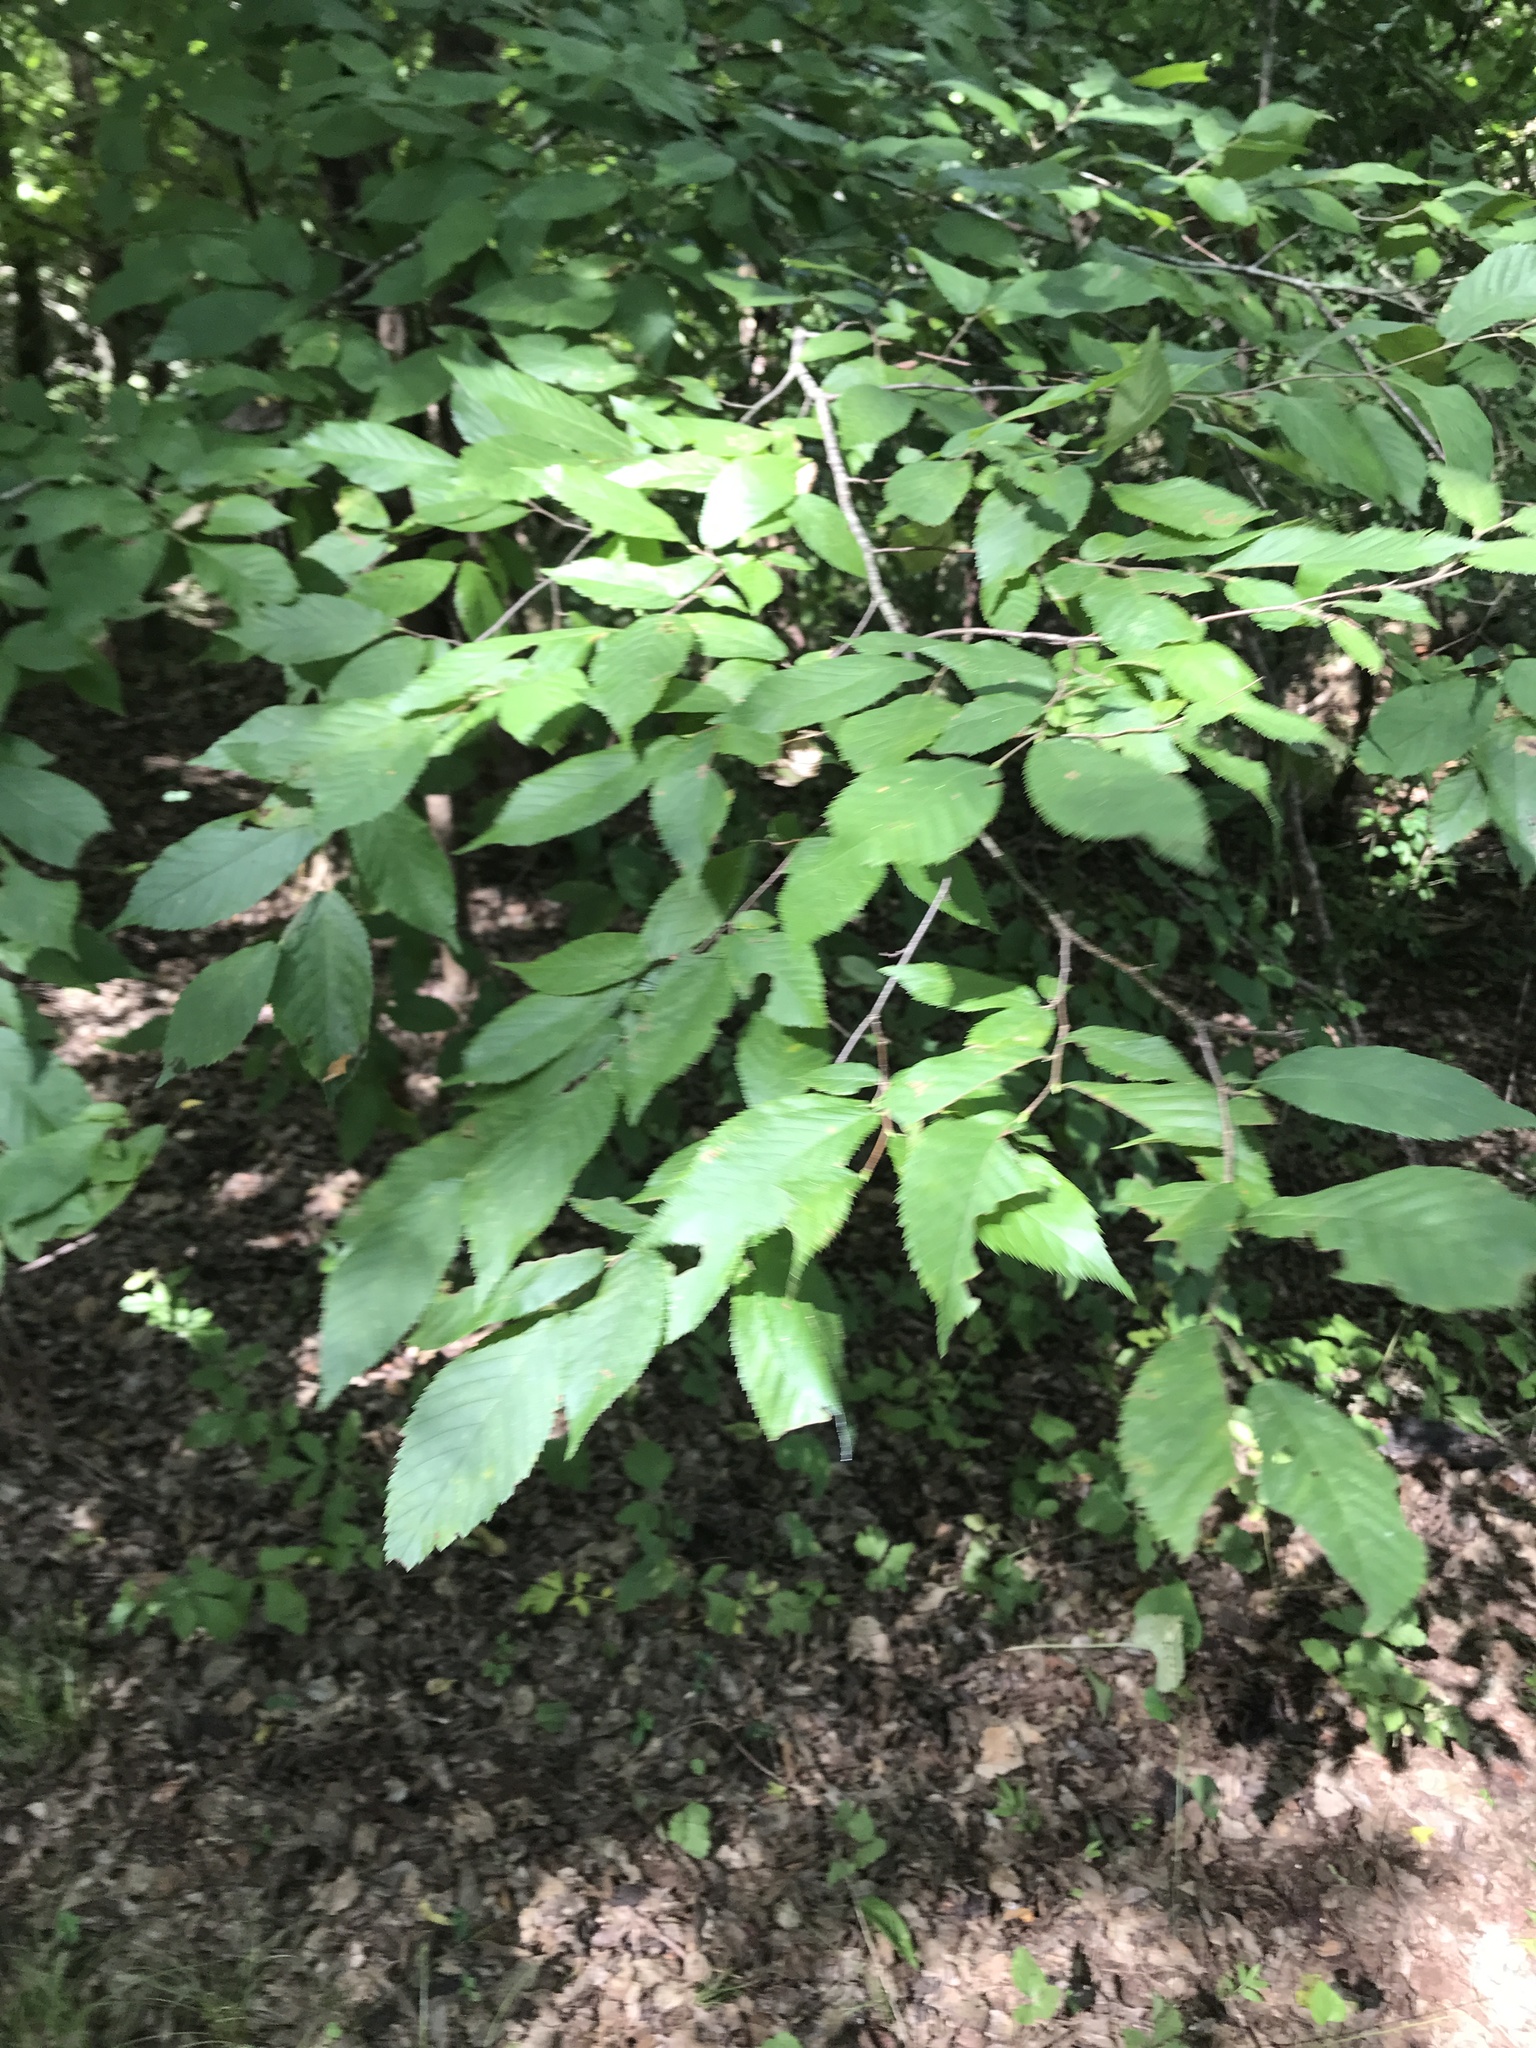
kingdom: Plantae
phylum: Tracheophyta
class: Magnoliopsida
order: Fagales
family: Betulaceae
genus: Carpinus
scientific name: Carpinus caroliniana
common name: American hornbeam
